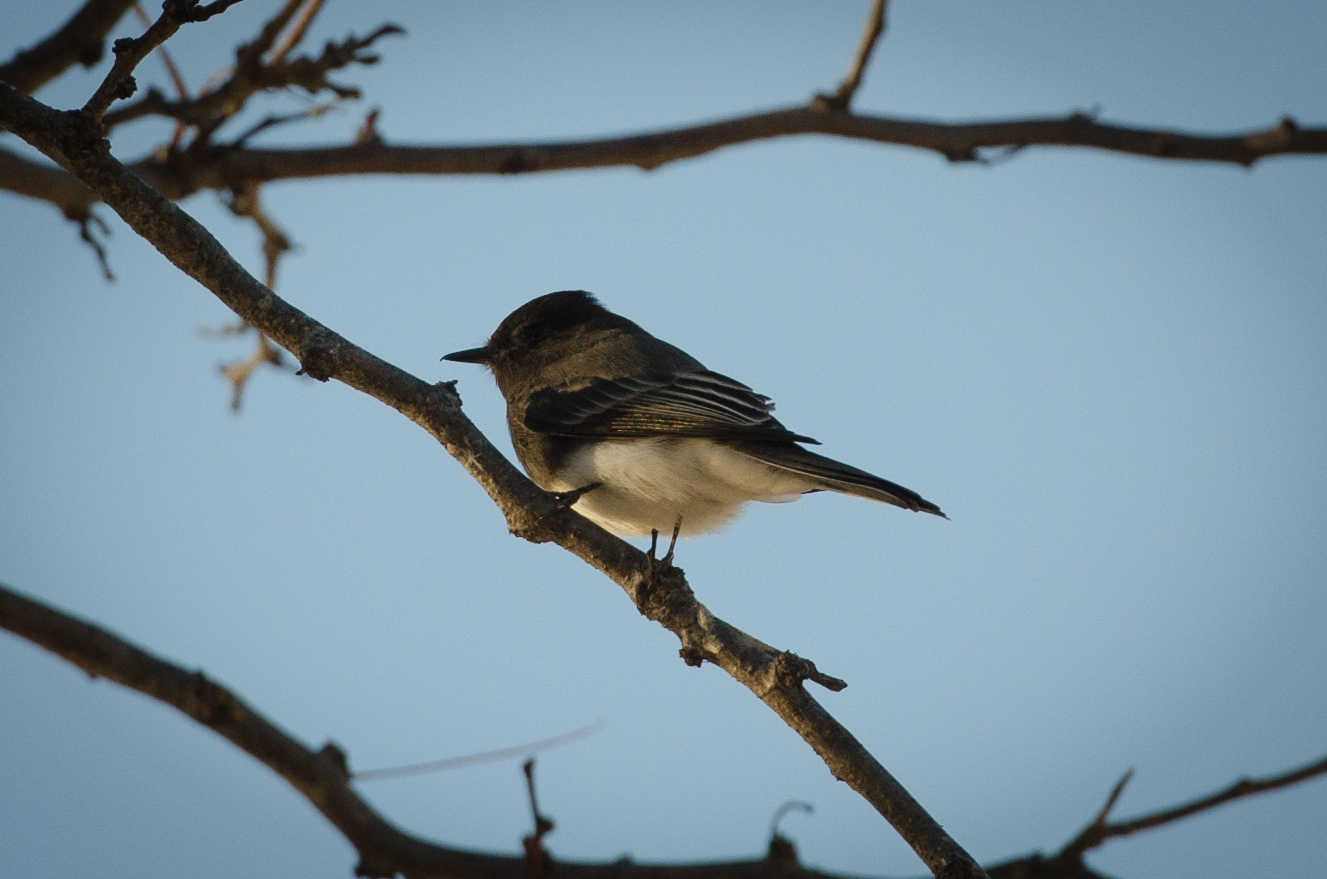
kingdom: Animalia
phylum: Chordata
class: Aves
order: Passeriformes
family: Tyrannidae
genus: Sayornis
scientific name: Sayornis nigricans
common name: Black phoebe
